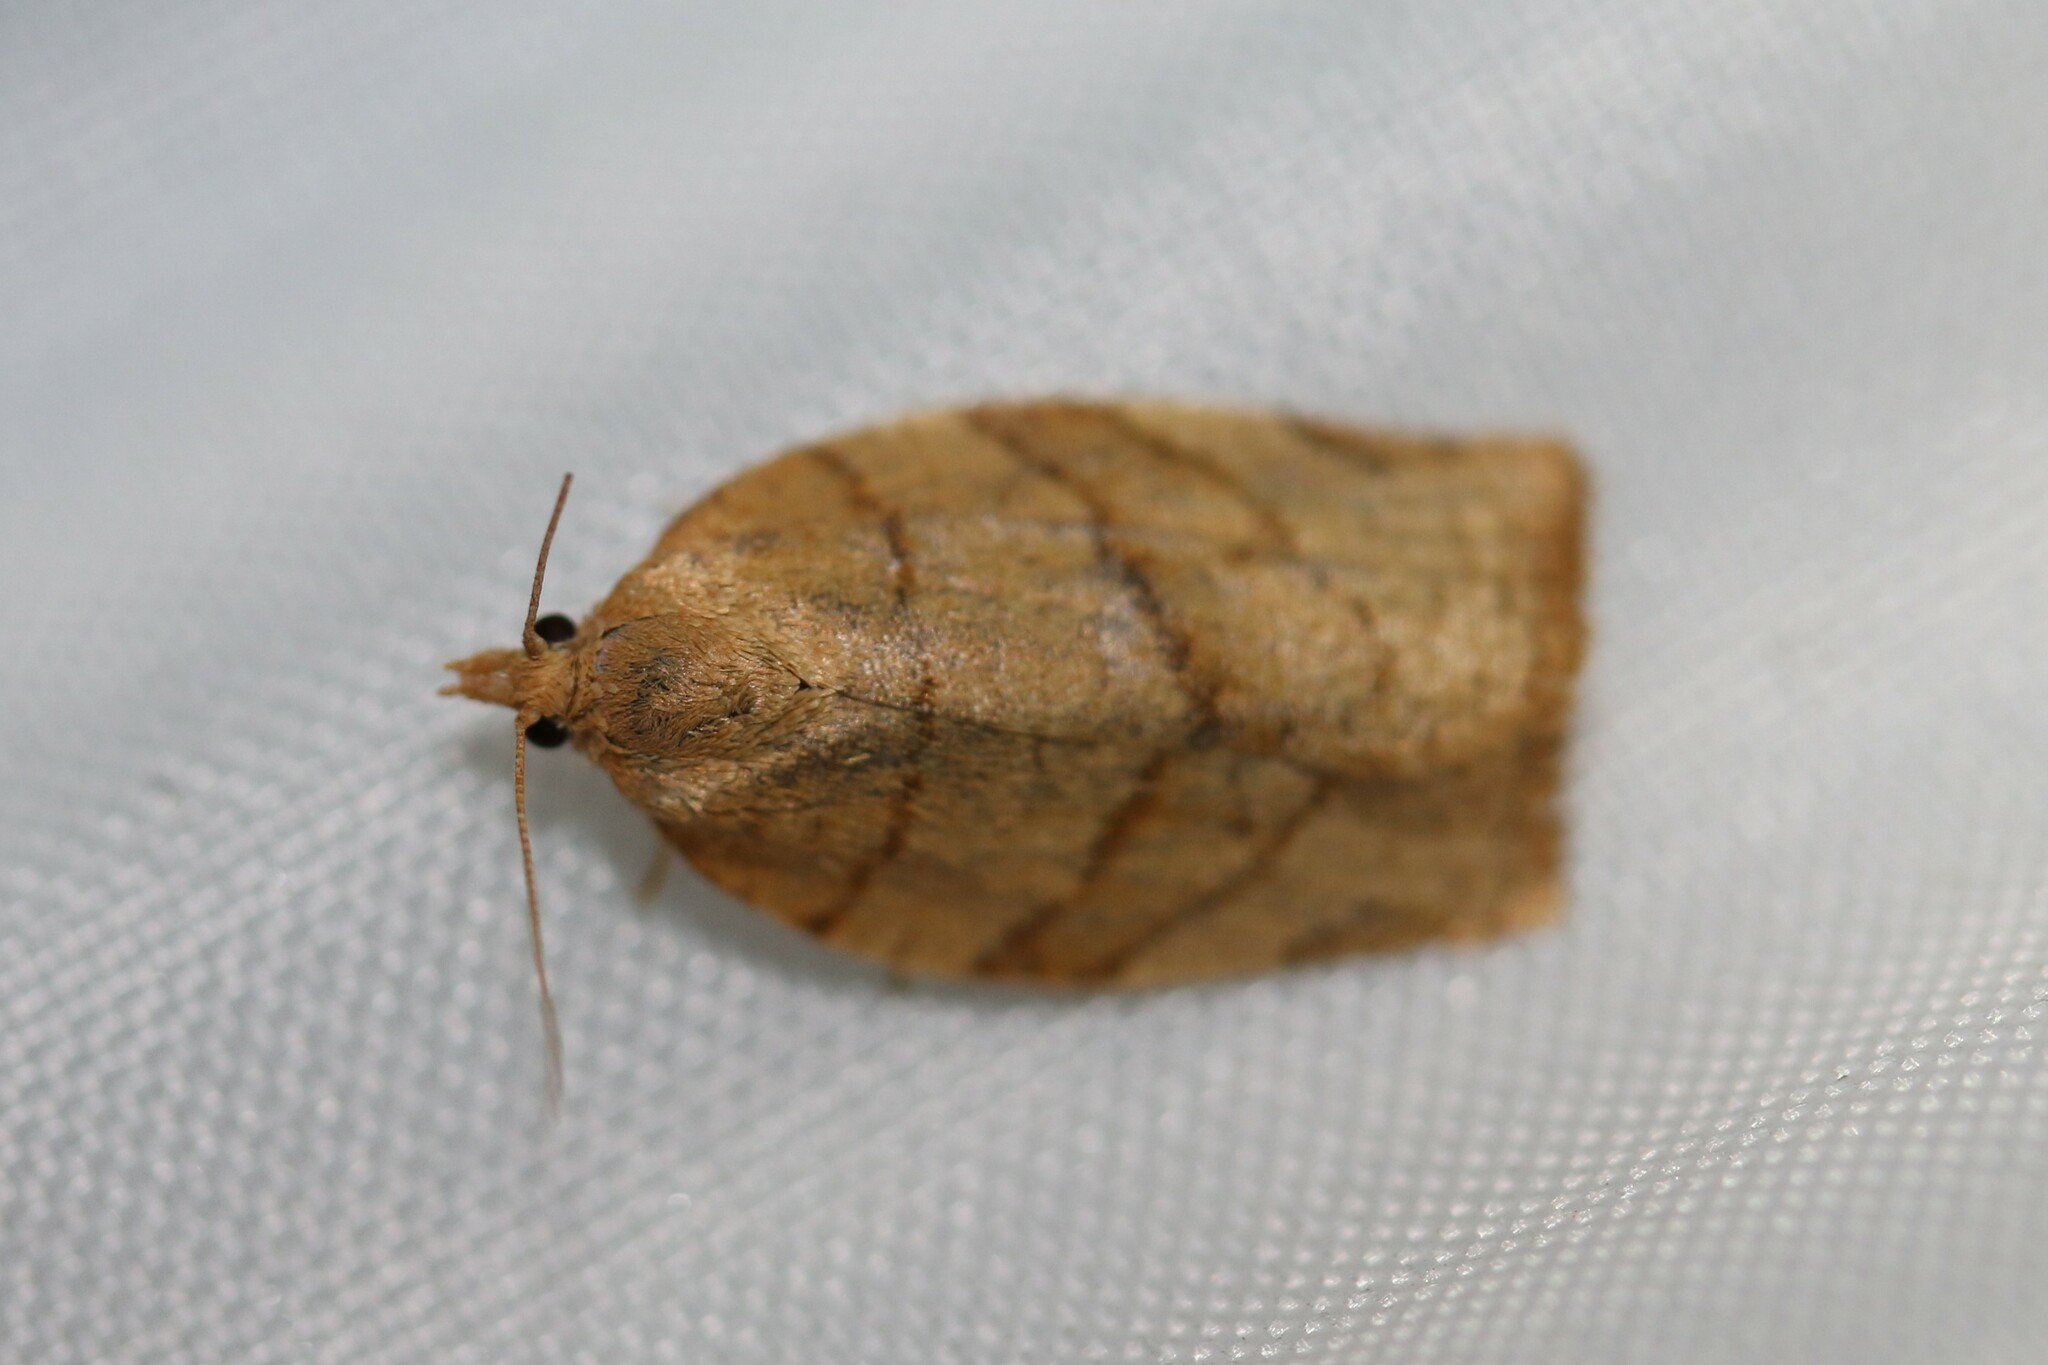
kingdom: Animalia
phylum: Arthropoda
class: Insecta
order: Lepidoptera
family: Tortricidae
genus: Pandemis
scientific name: Pandemis cerasana
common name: Barred fruit-tree tortrix
